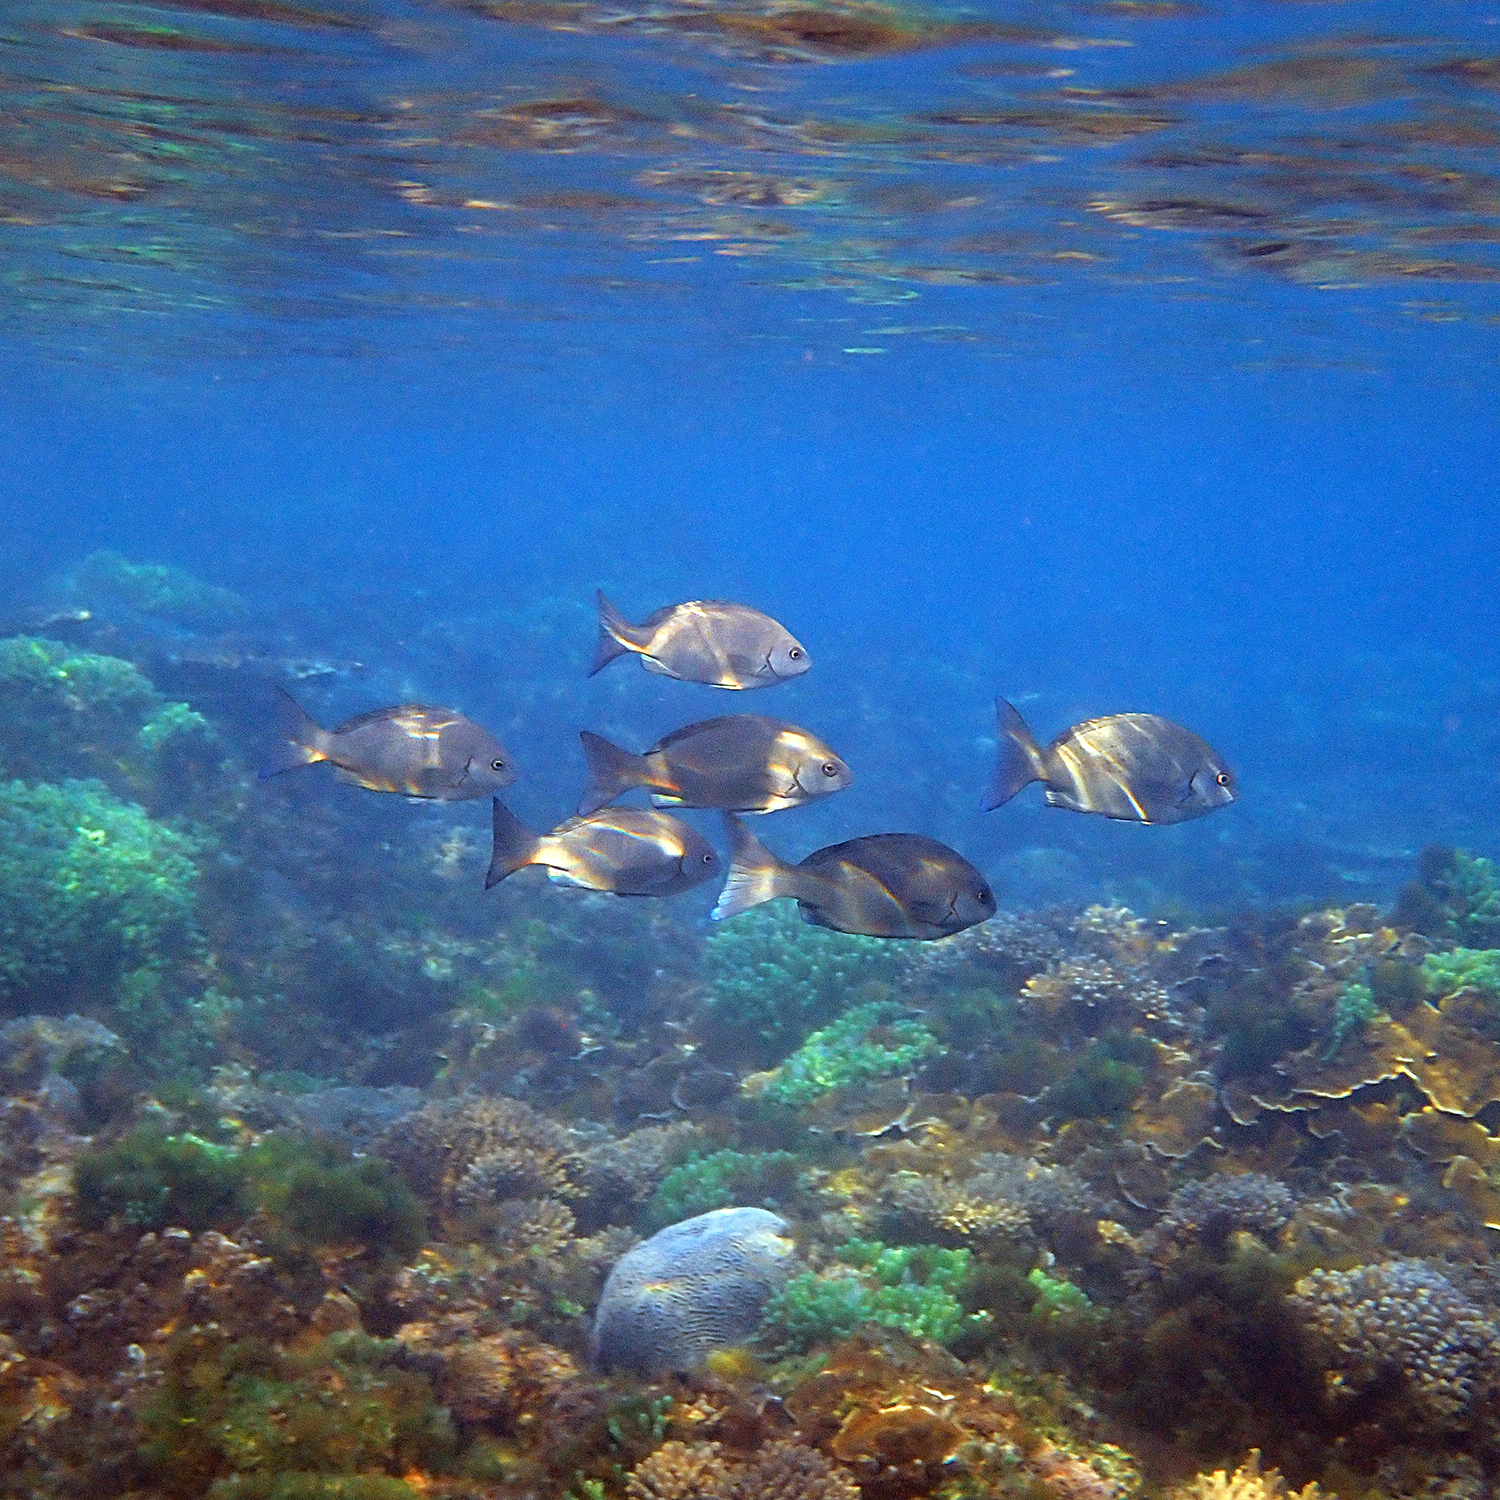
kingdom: Animalia
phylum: Chordata
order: Perciformes
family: Kyphosidae
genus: Girella
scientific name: Girella cyanea
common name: Bluefish
